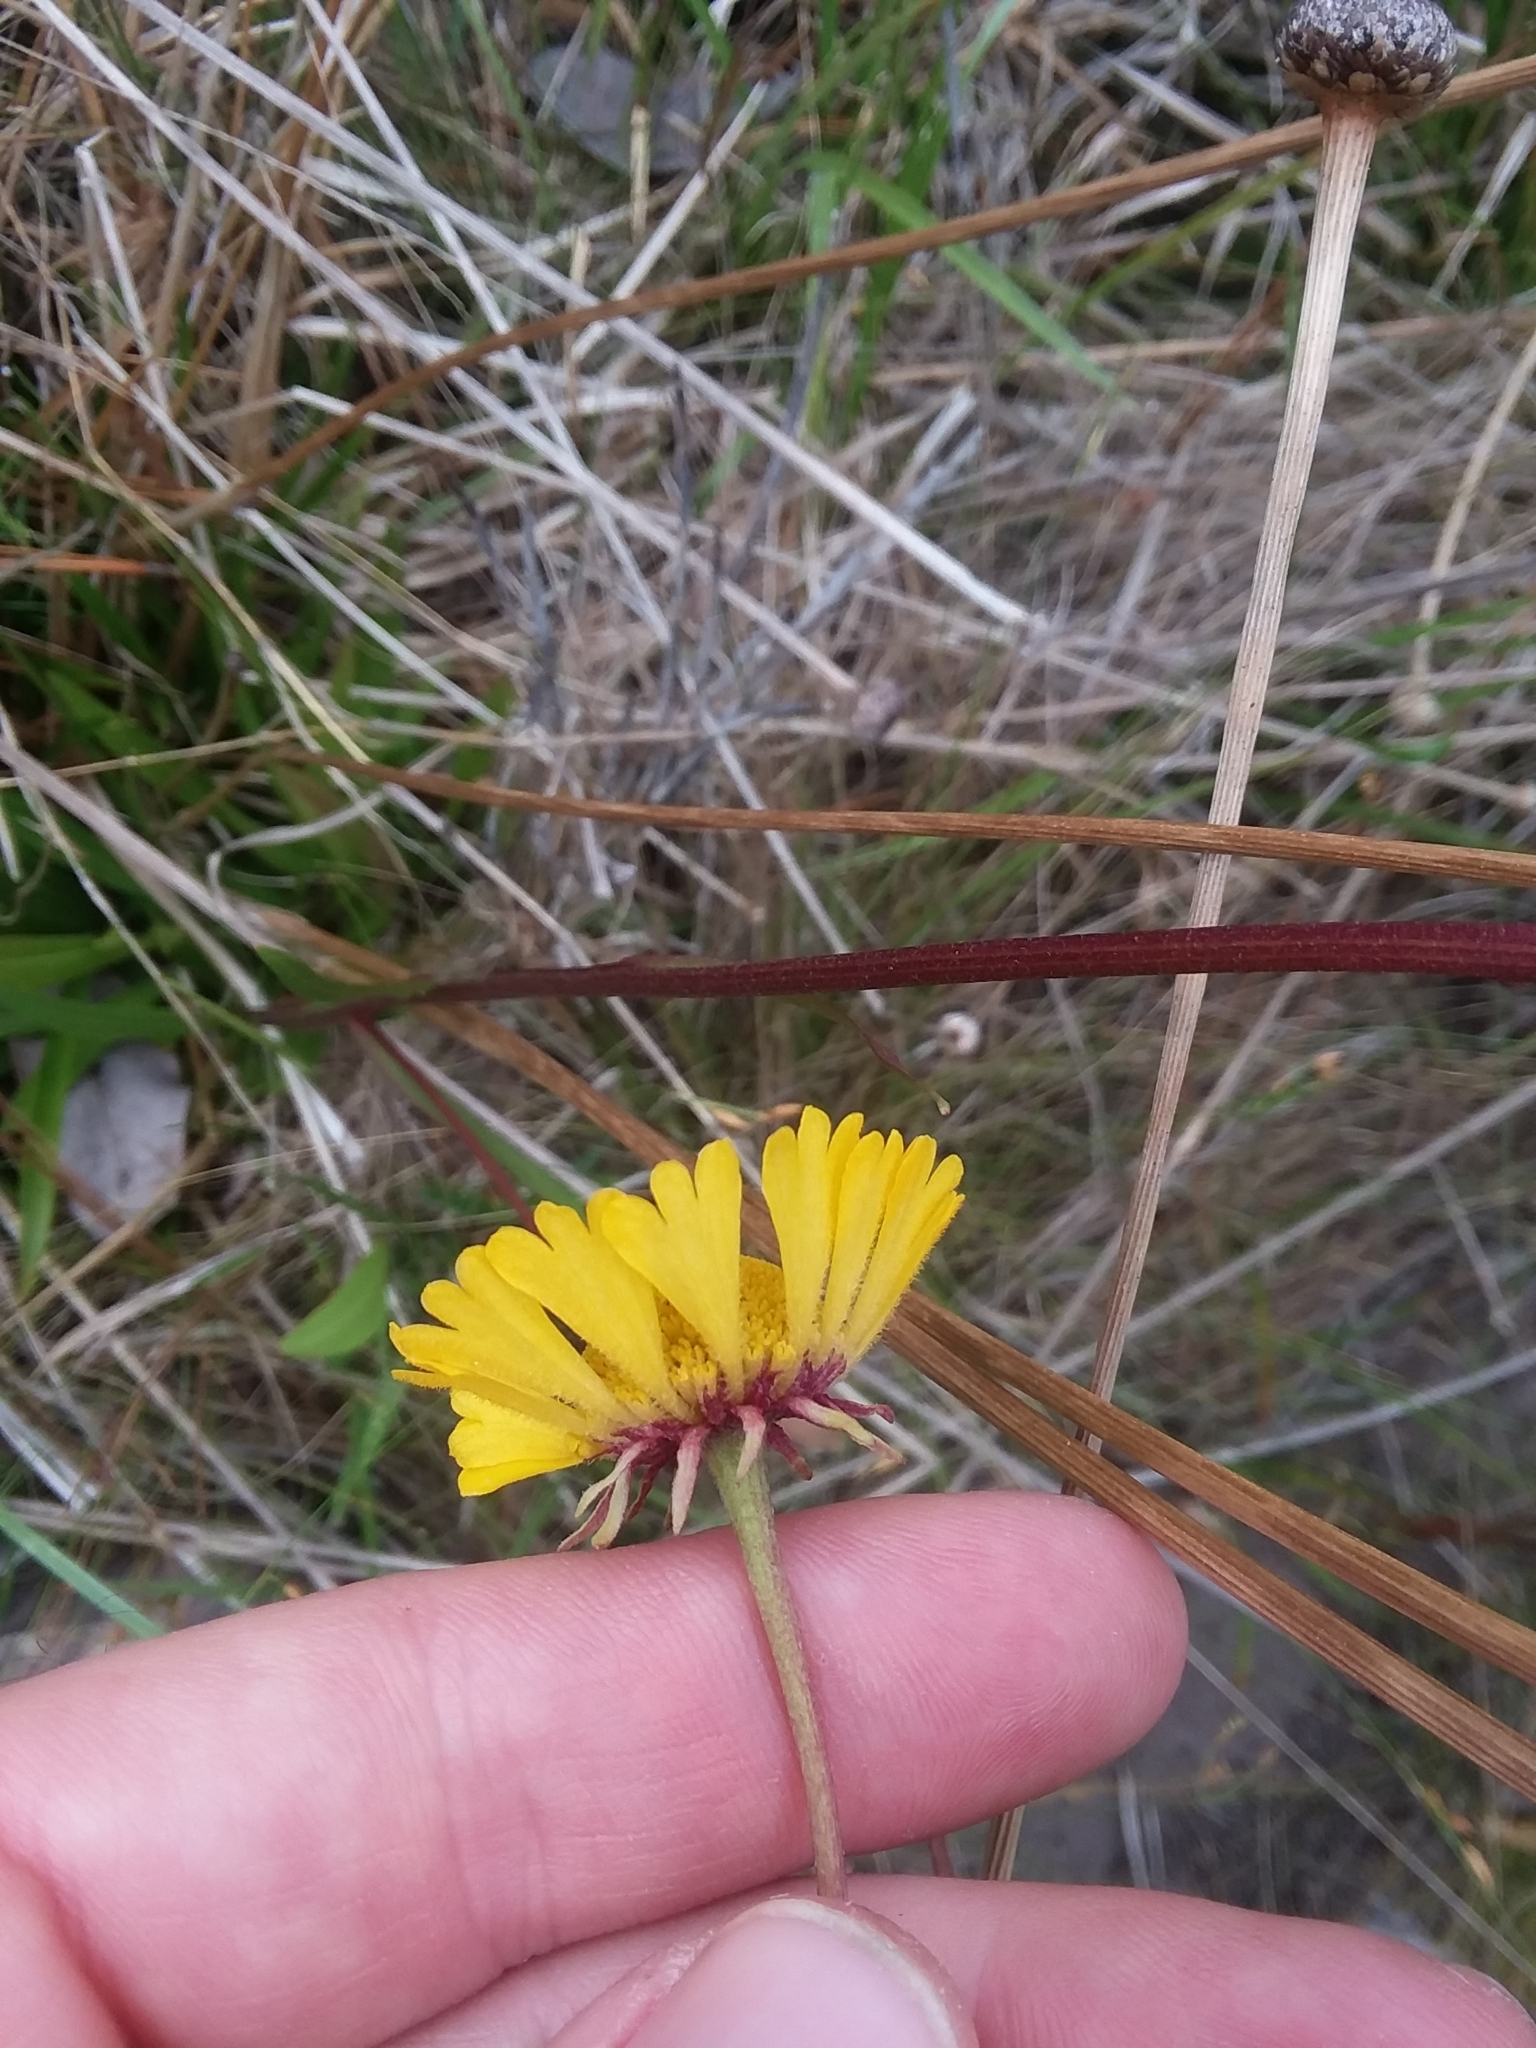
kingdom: Plantae
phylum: Tracheophyta
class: Magnoliopsida
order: Asterales
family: Asteraceae
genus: Helenium
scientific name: Helenium vernale
